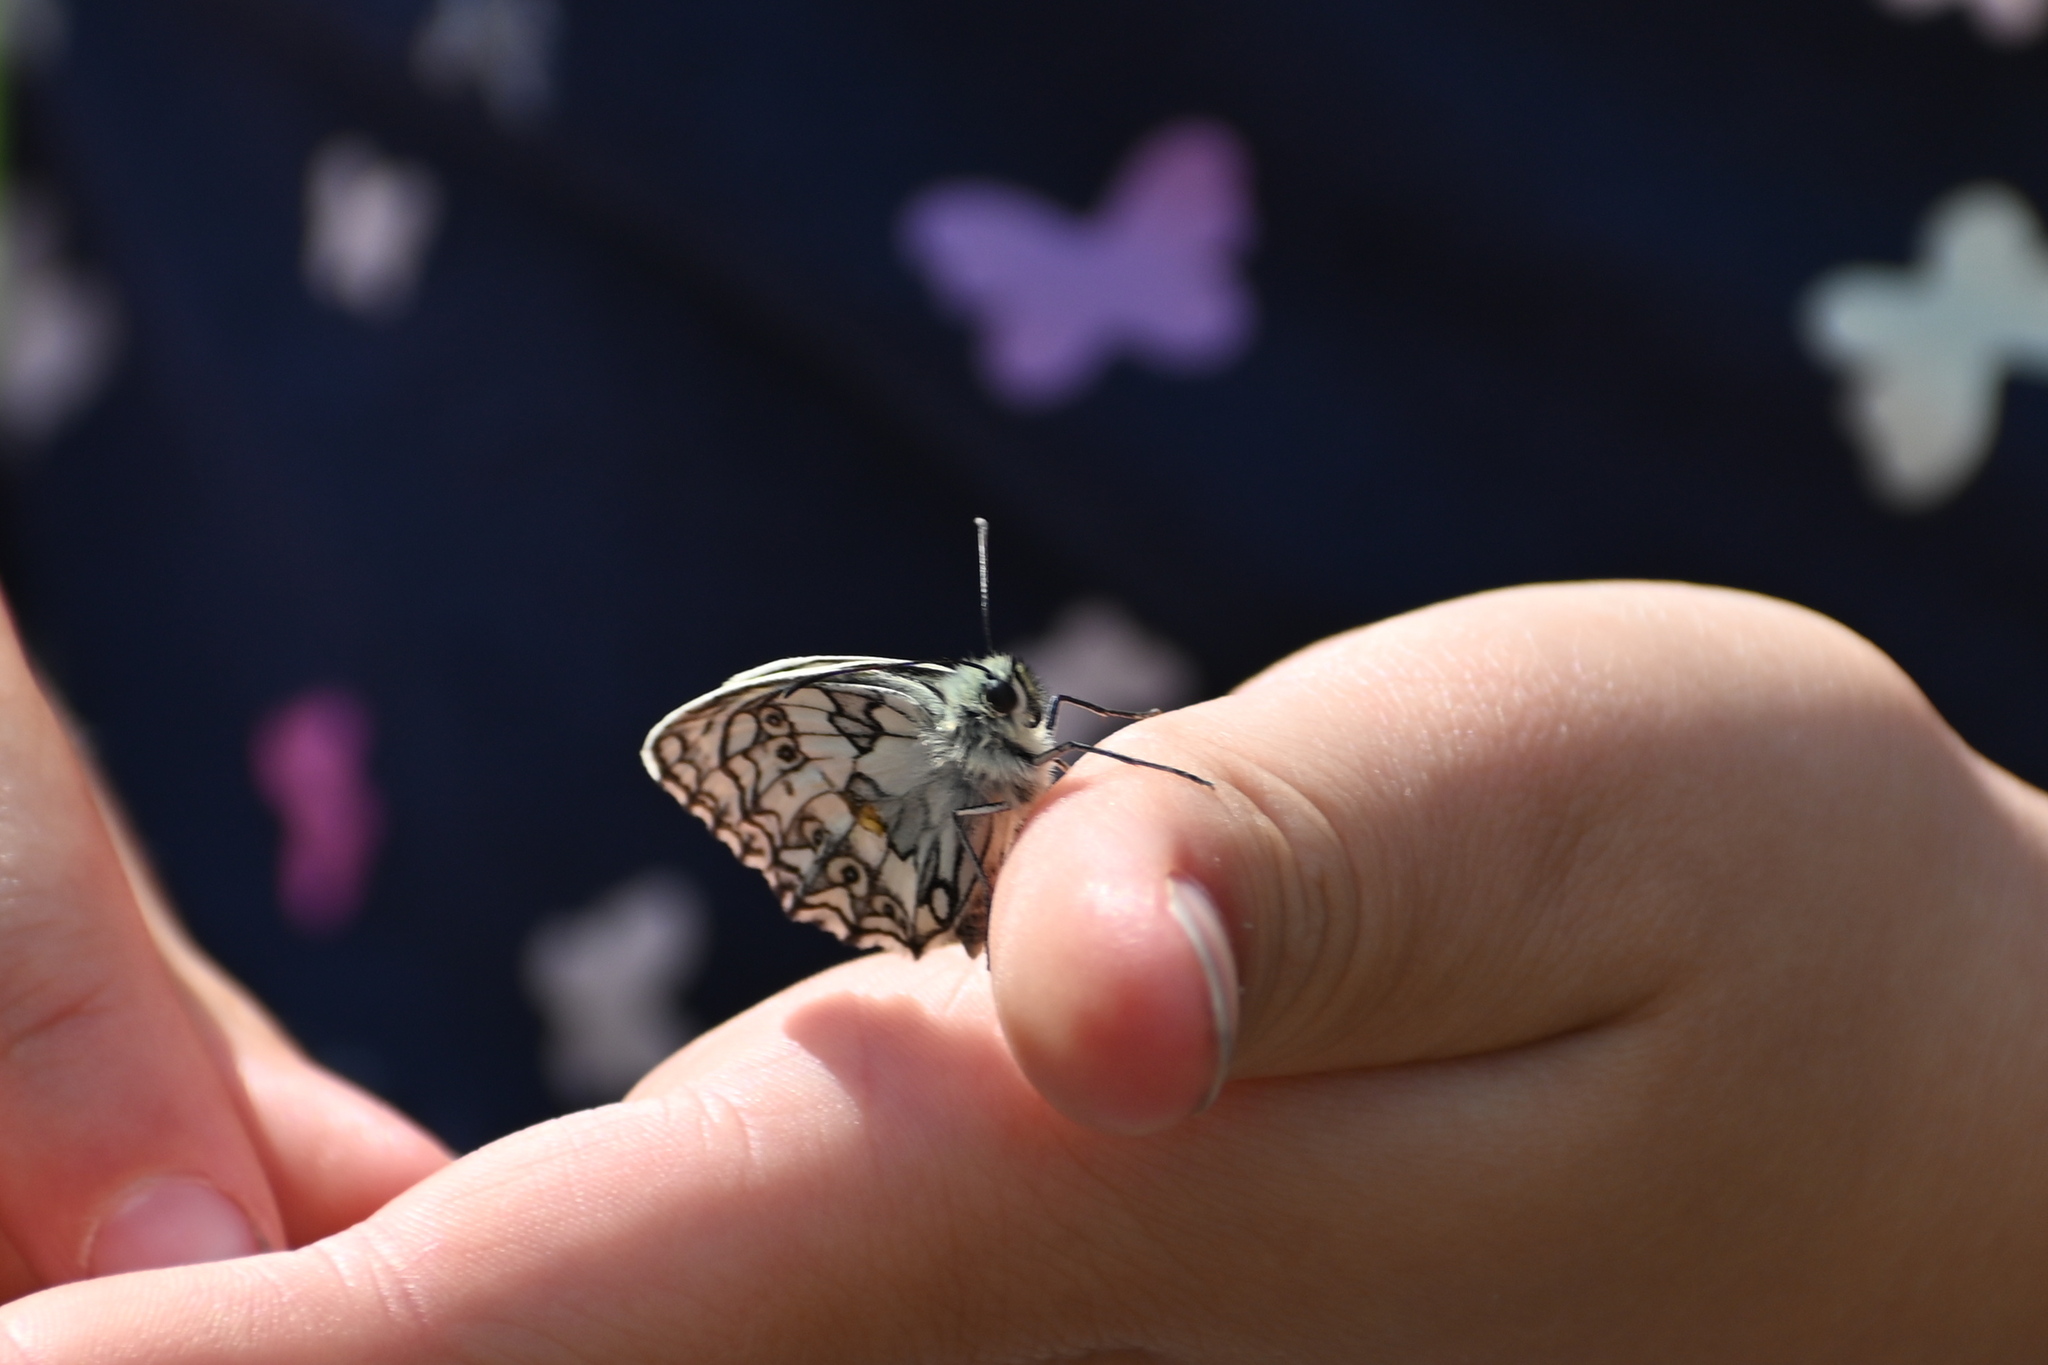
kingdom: Animalia
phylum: Arthropoda
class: Insecta
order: Lepidoptera
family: Nymphalidae
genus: Melanargia
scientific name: Melanargia galathea
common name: Marbled white
